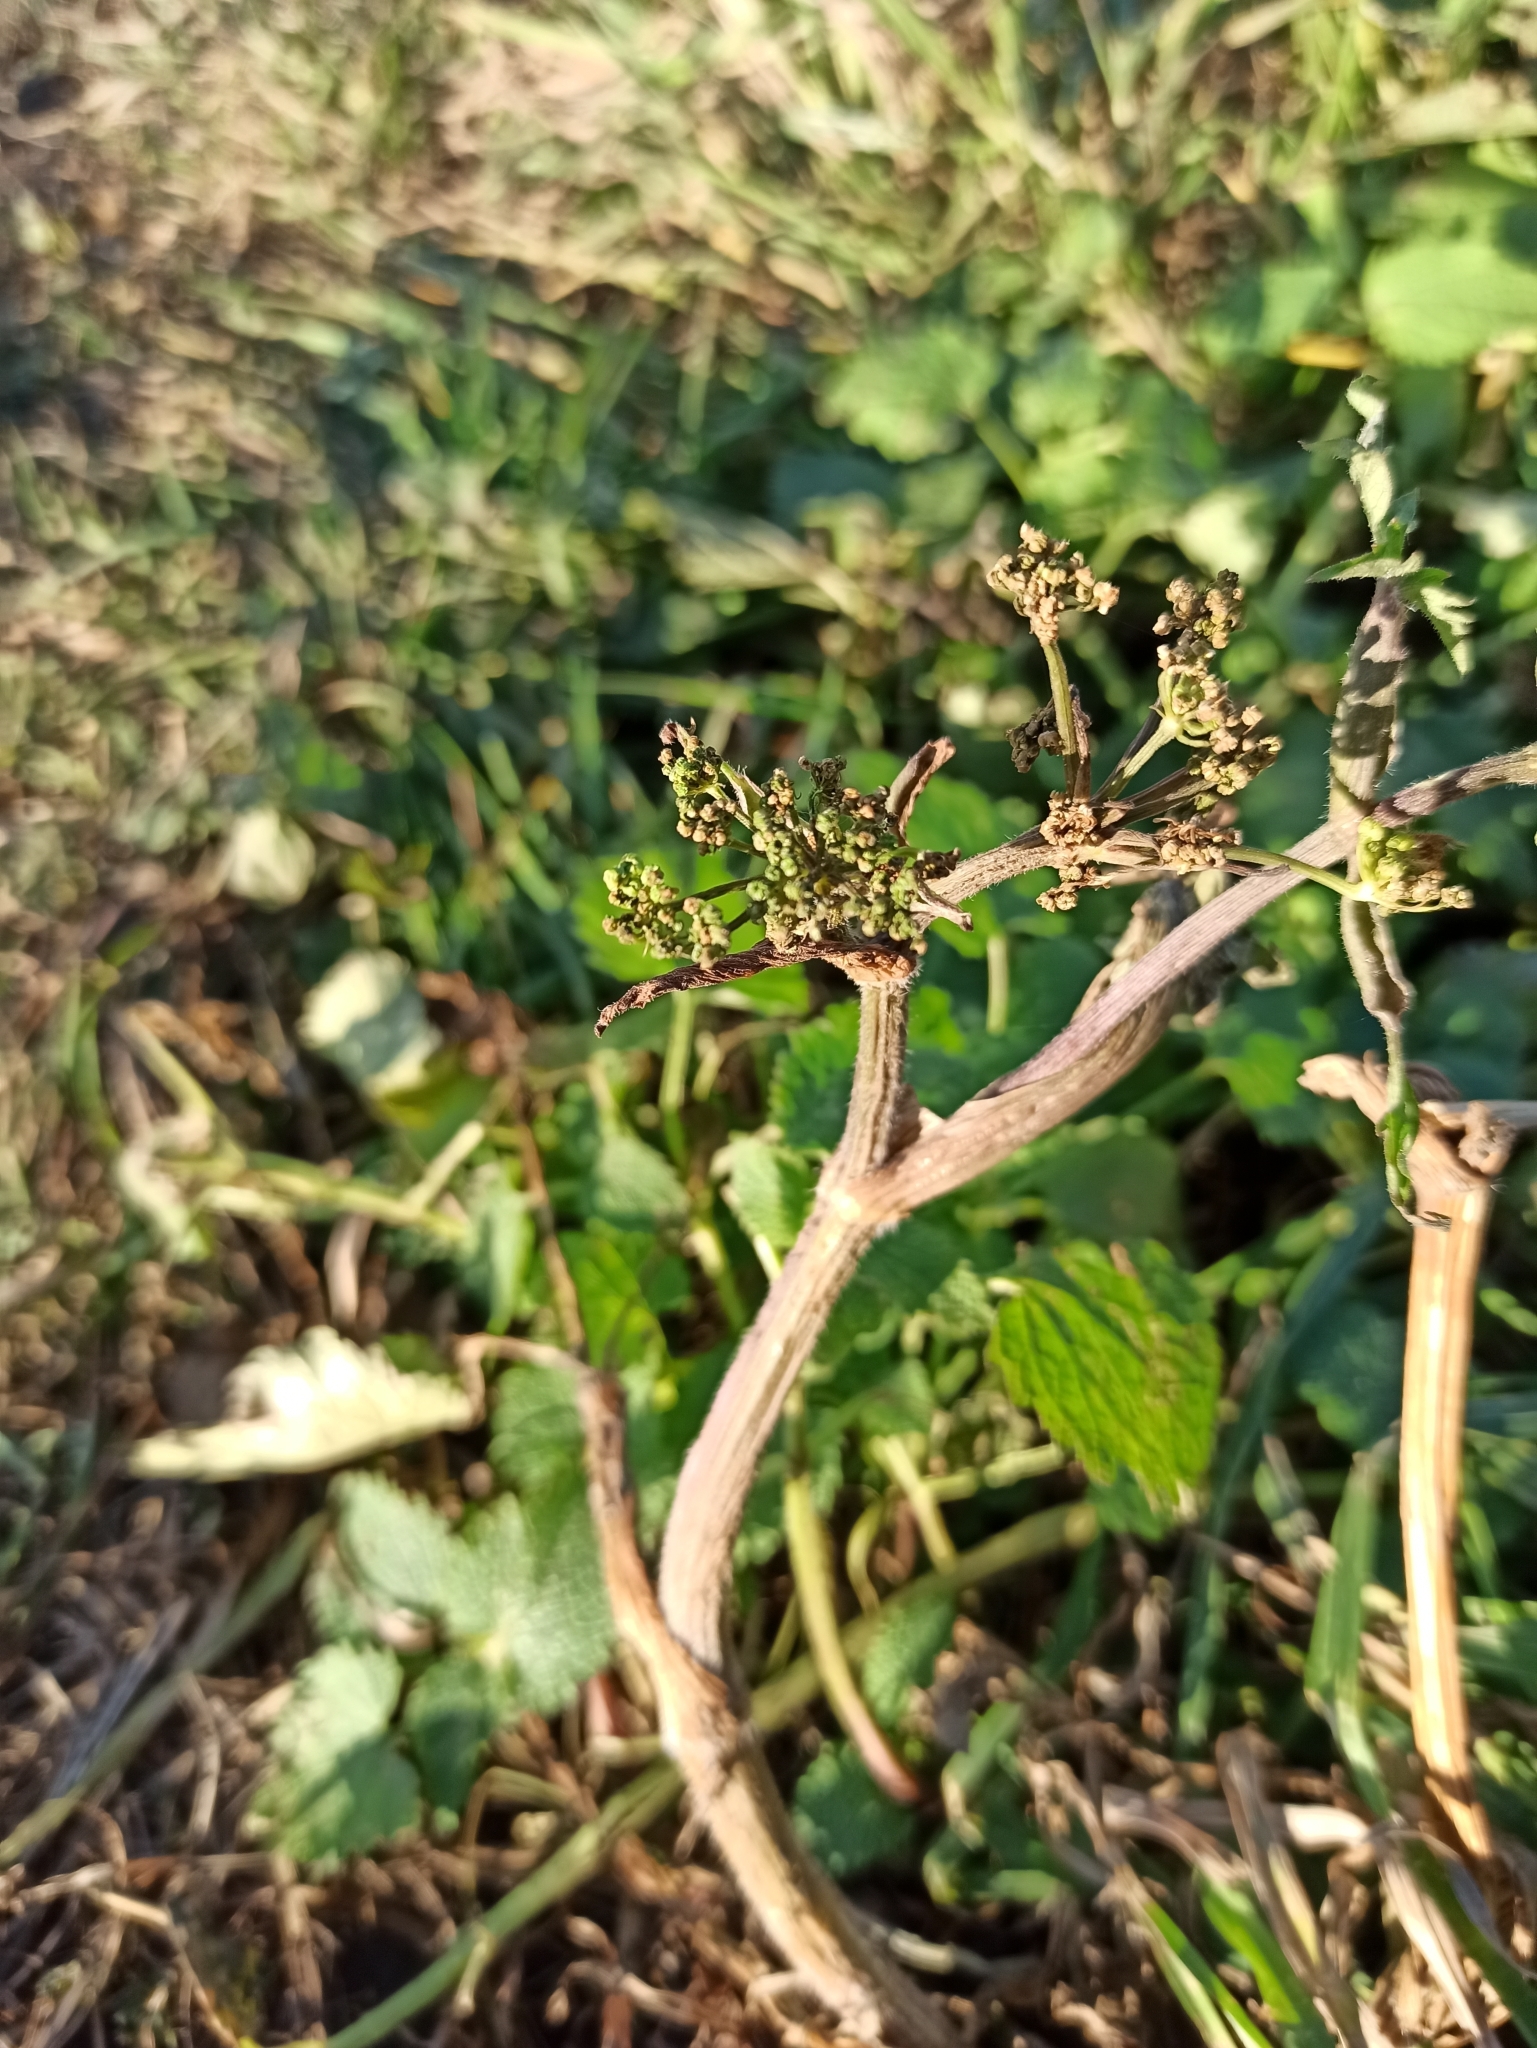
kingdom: Plantae
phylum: Tracheophyta
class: Magnoliopsida
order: Apiales
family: Apiaceae
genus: Heracleum
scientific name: Heracleum sphondylium
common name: Hogweed
